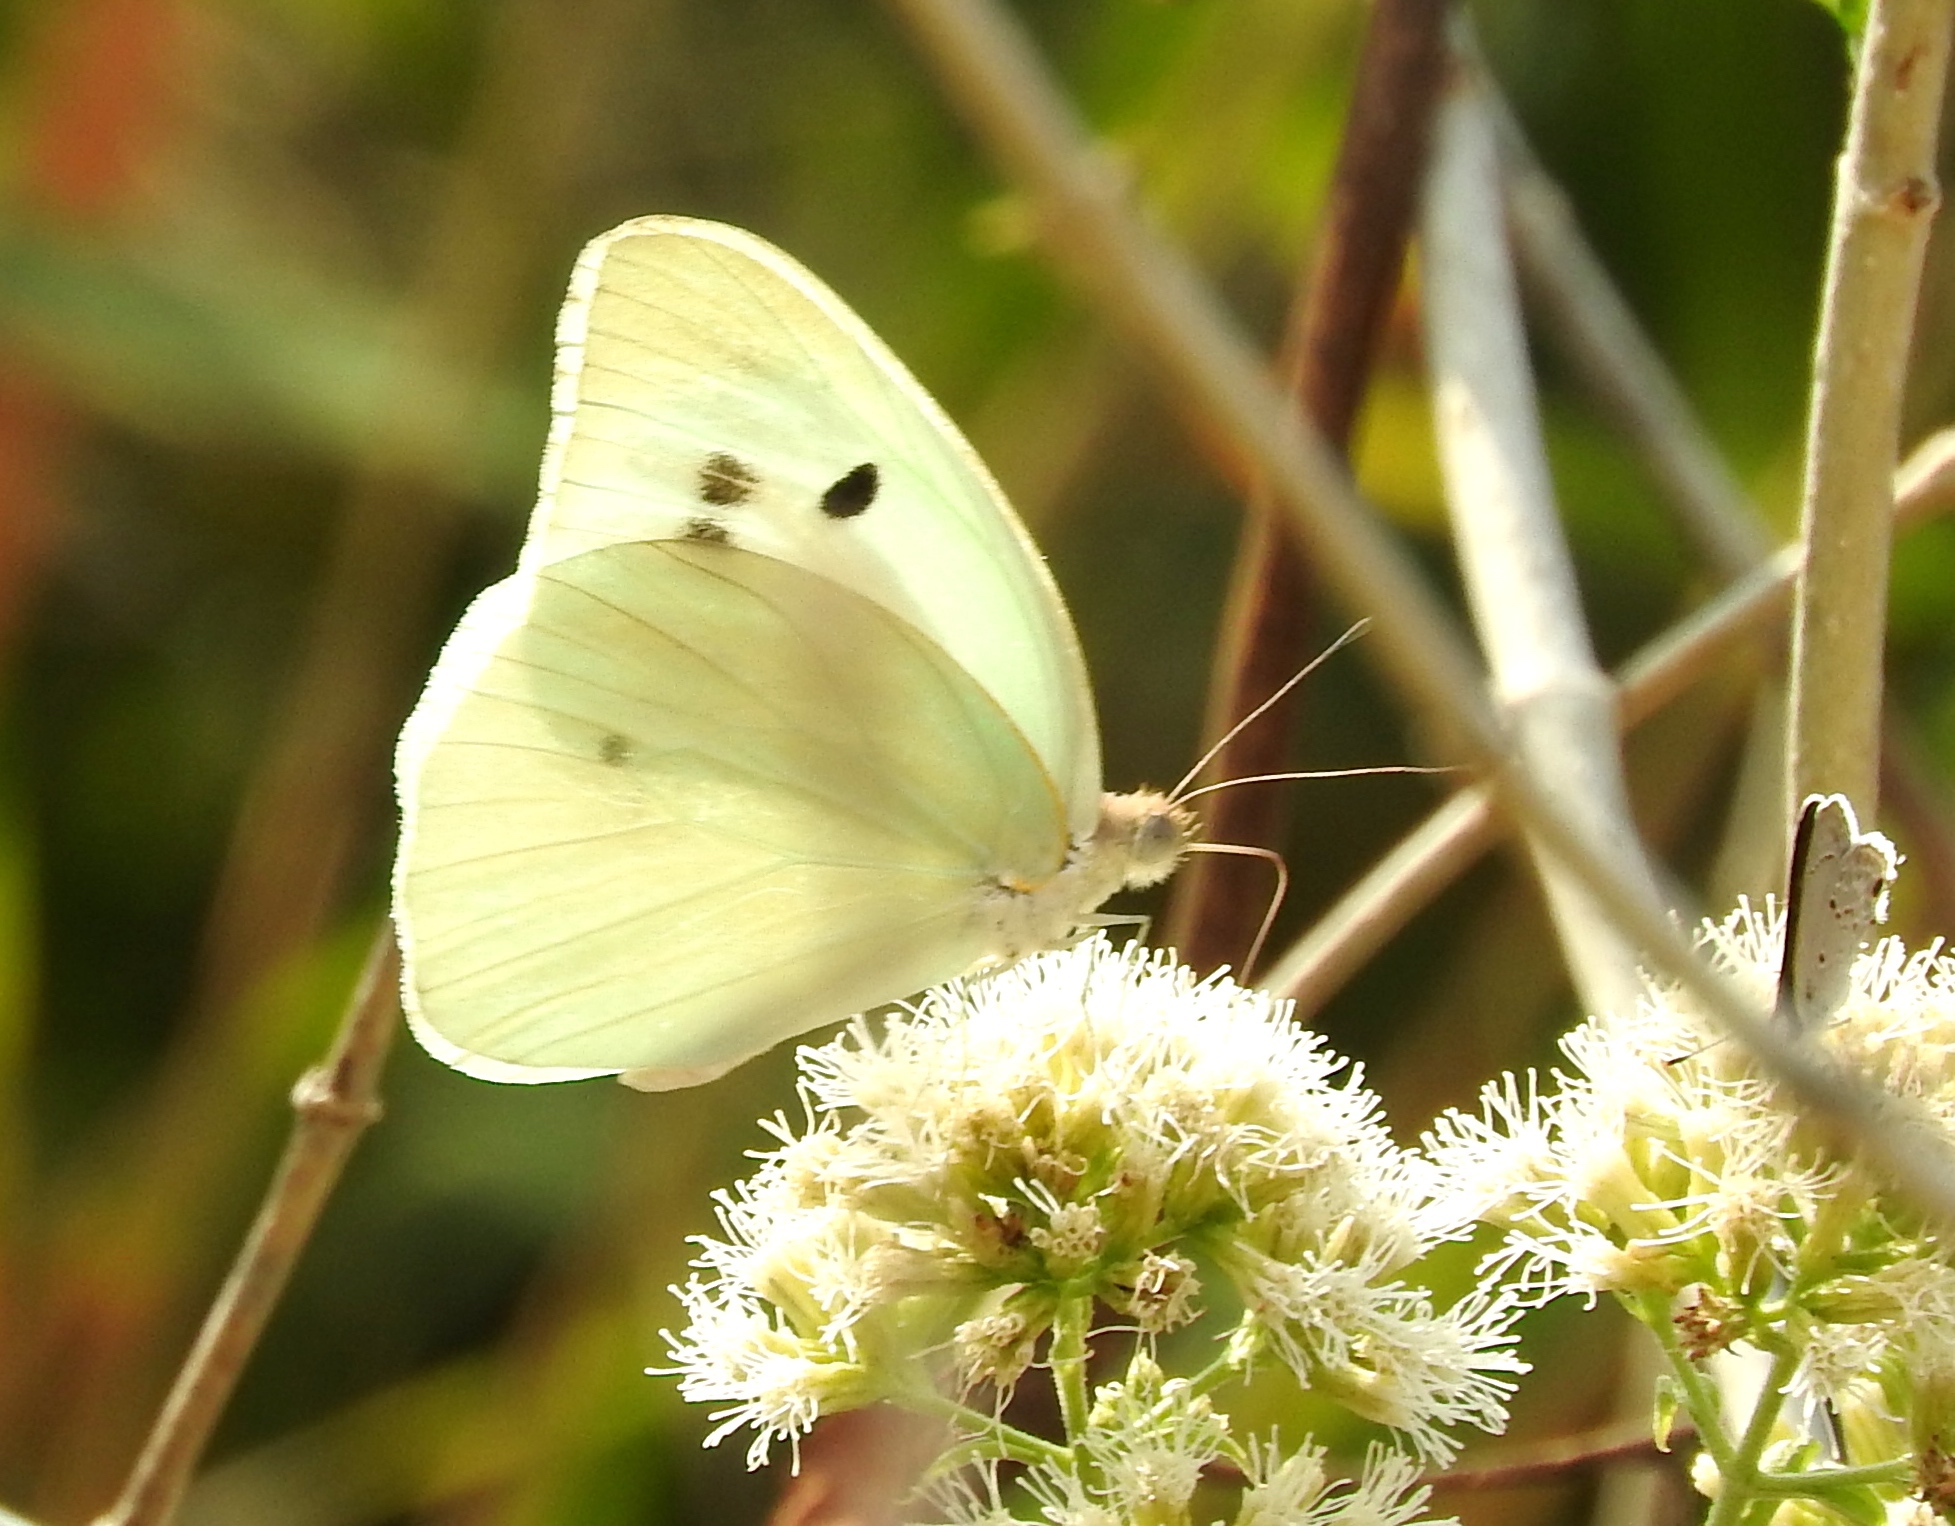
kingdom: Animalia
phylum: Arthropoda
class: Insecta
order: Lepidoptera
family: Pieridae
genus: Ganyra
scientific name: Ganyra josephina
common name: Giant white
